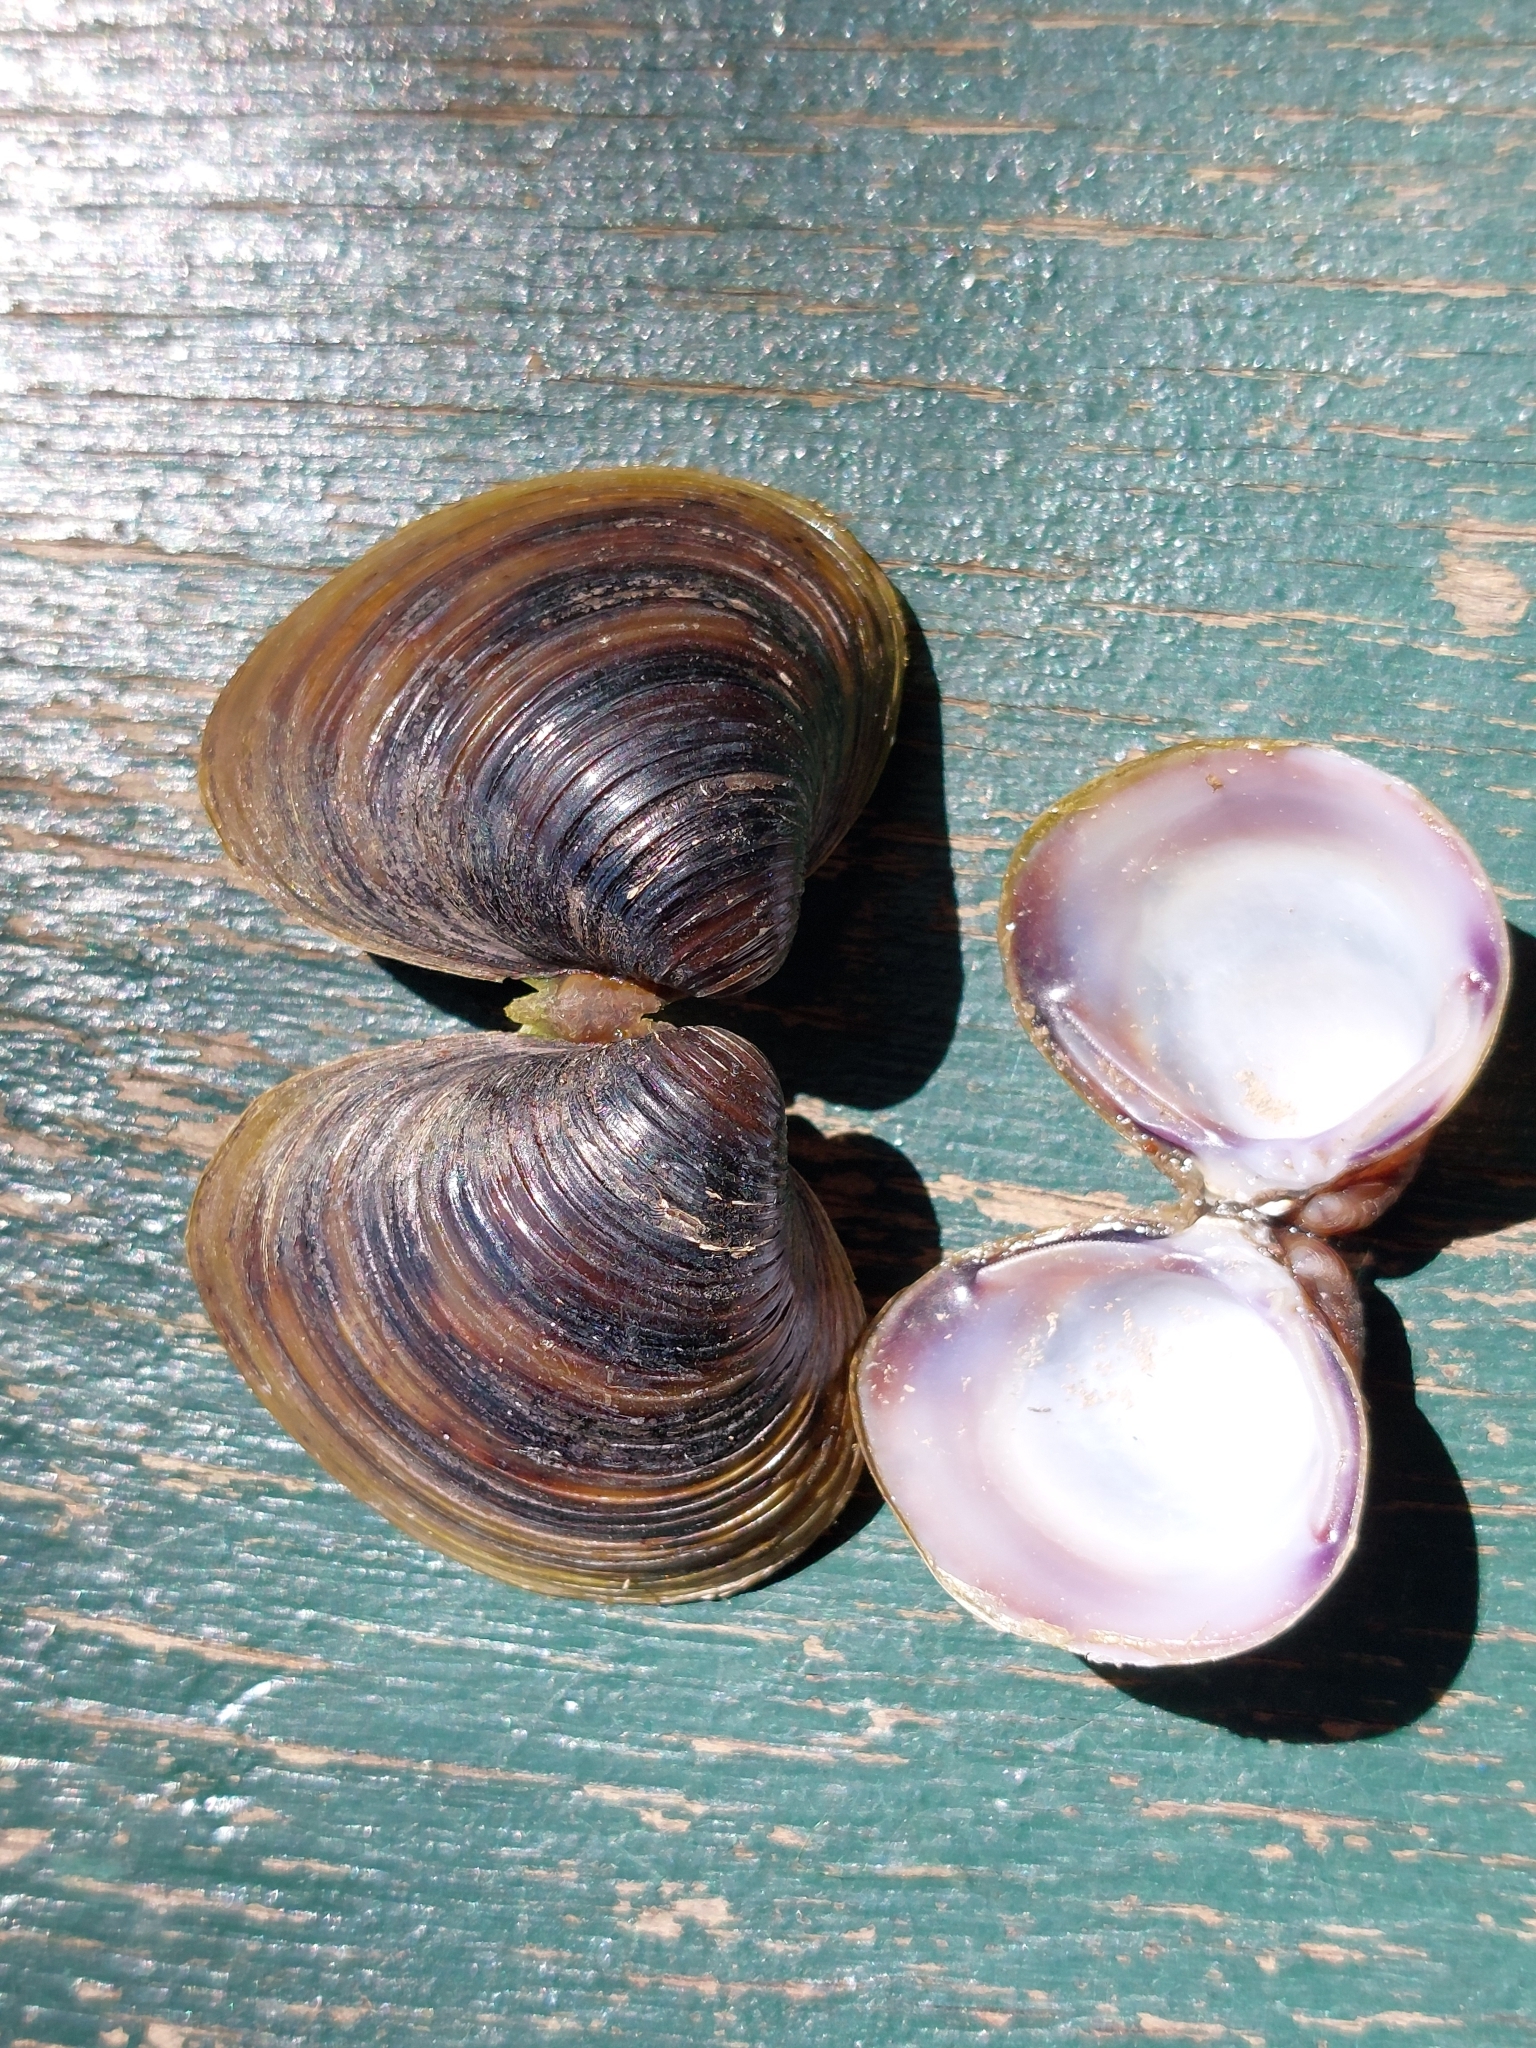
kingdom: Animalia
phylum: Mollusca
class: Bivalvia
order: Venerida
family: Cyrenidae
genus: Corbicula
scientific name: Corbicula fluminea
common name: Asian clam
